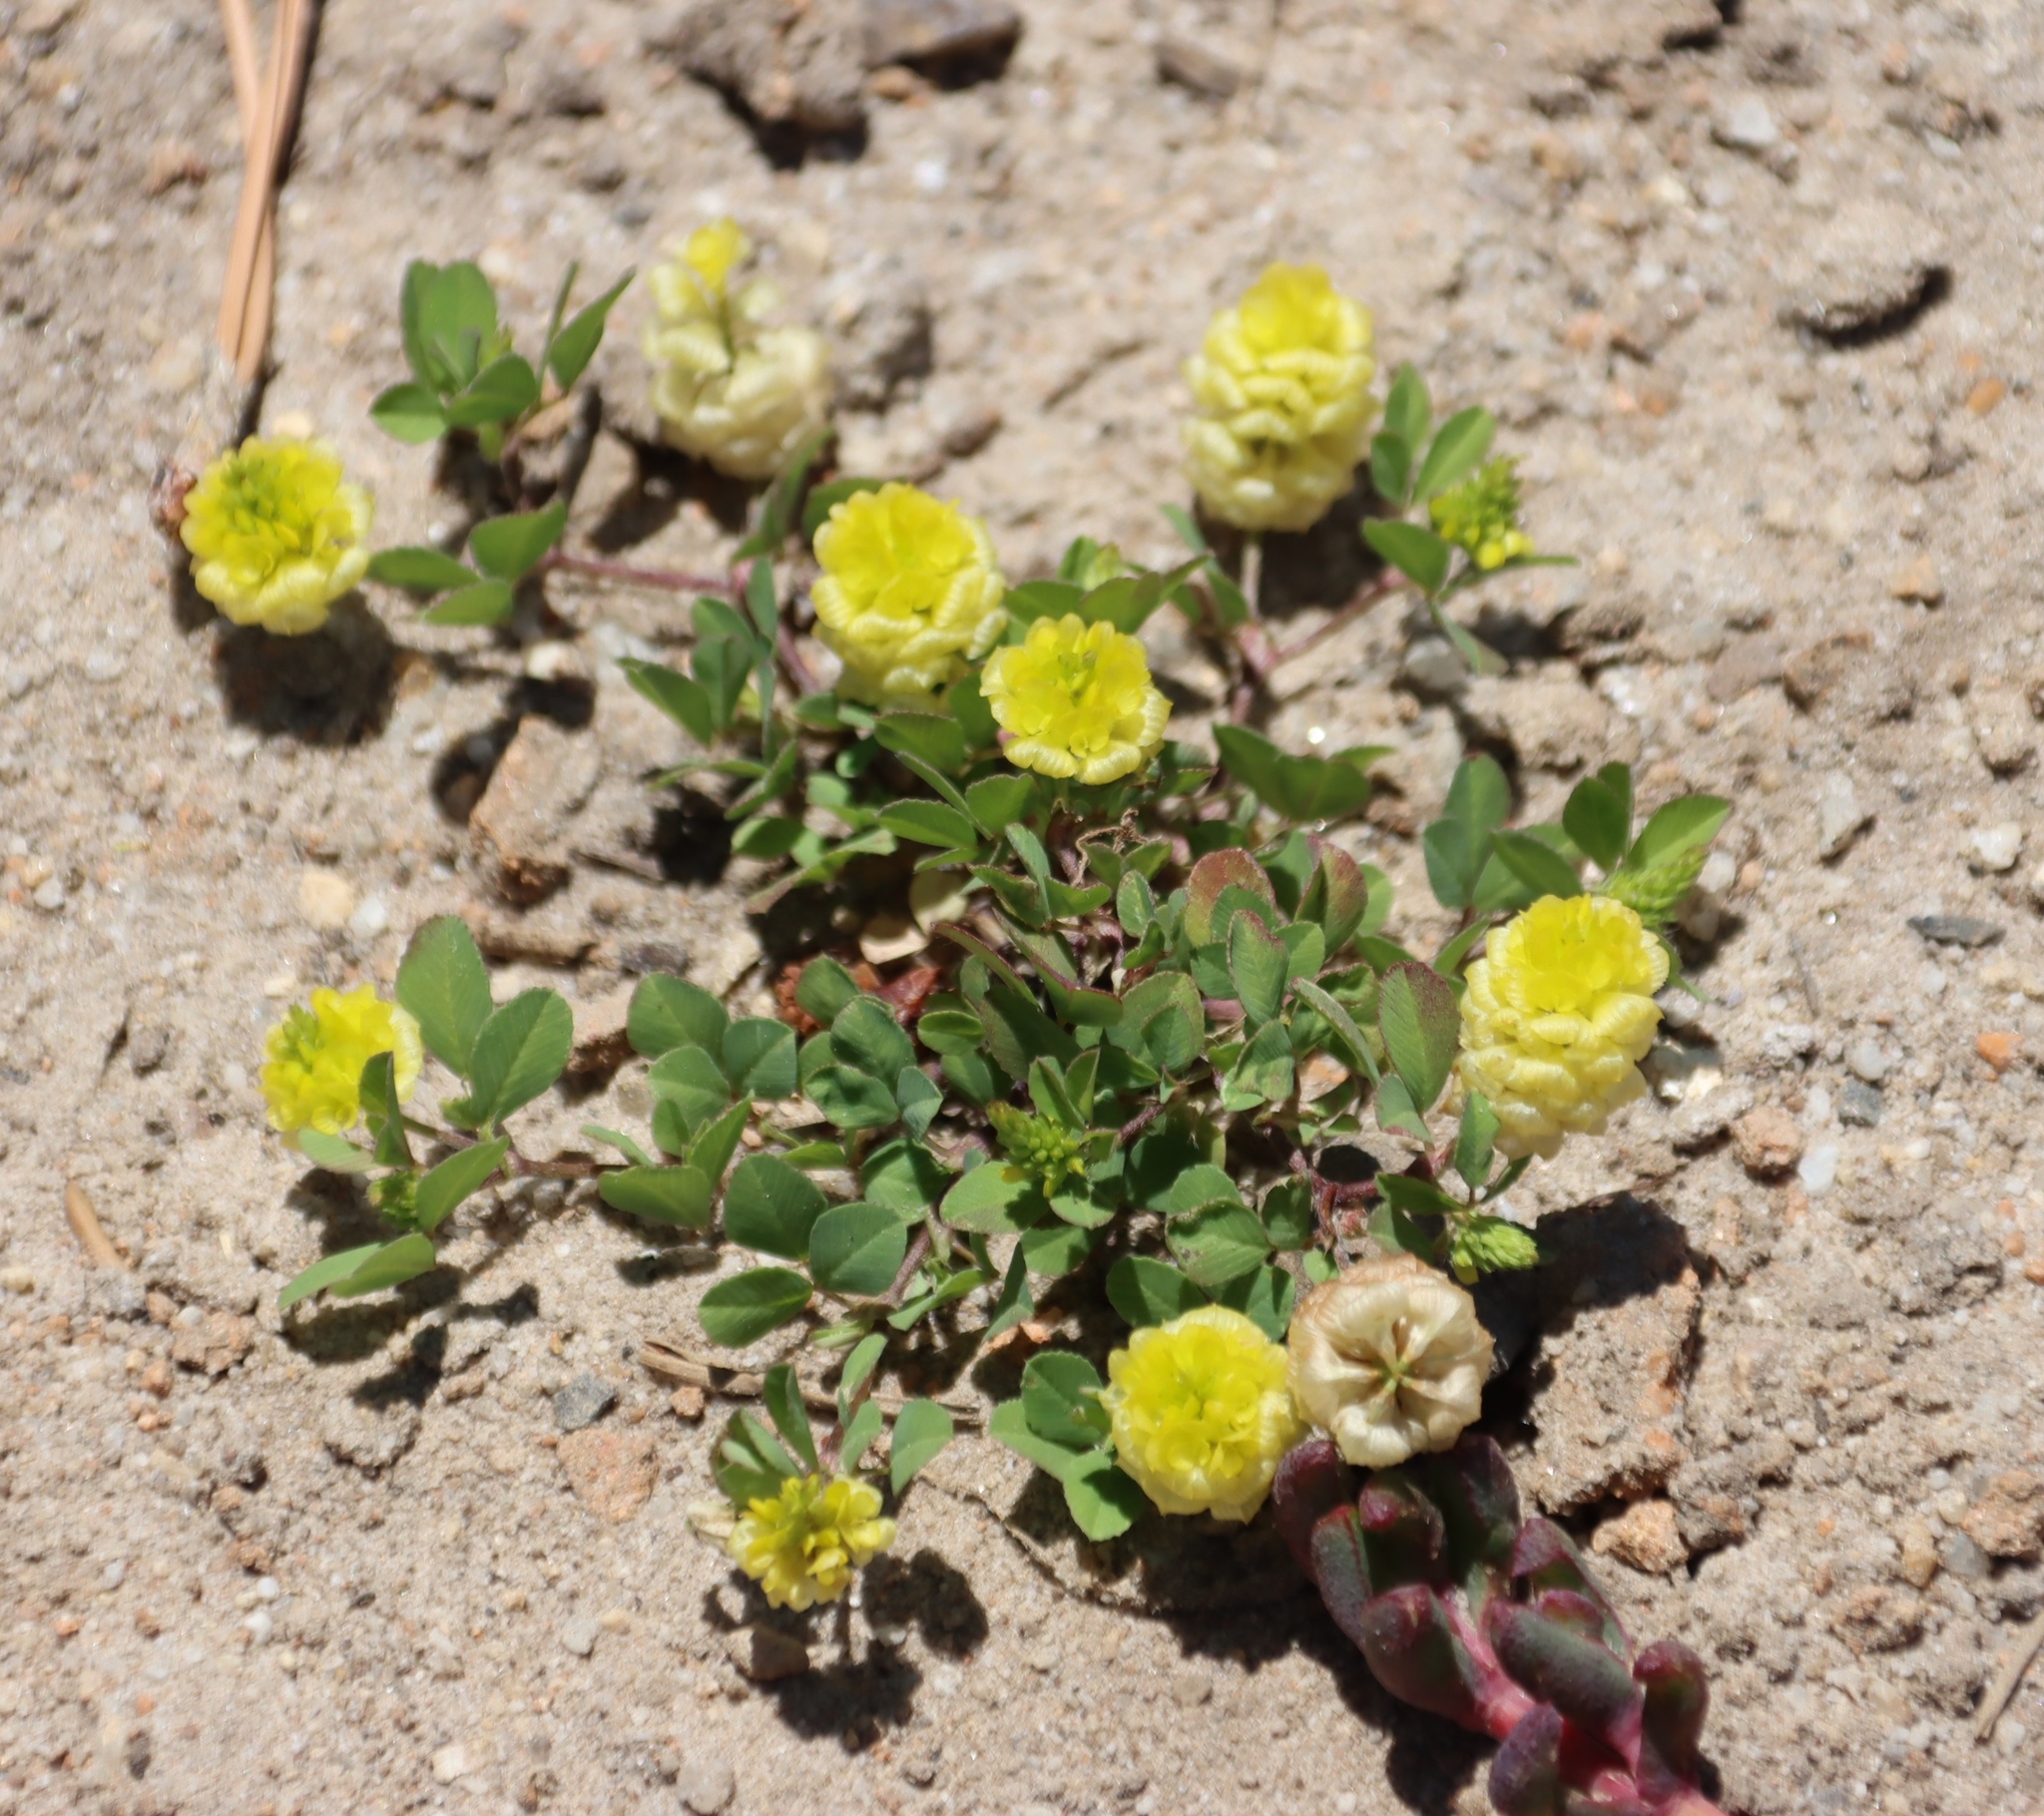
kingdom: Plantae
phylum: Tracheophyta
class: Magnoliopsida
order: Fabales
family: Fabaceae
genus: Trifolium
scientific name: Trifolium campestre
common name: Field clover
